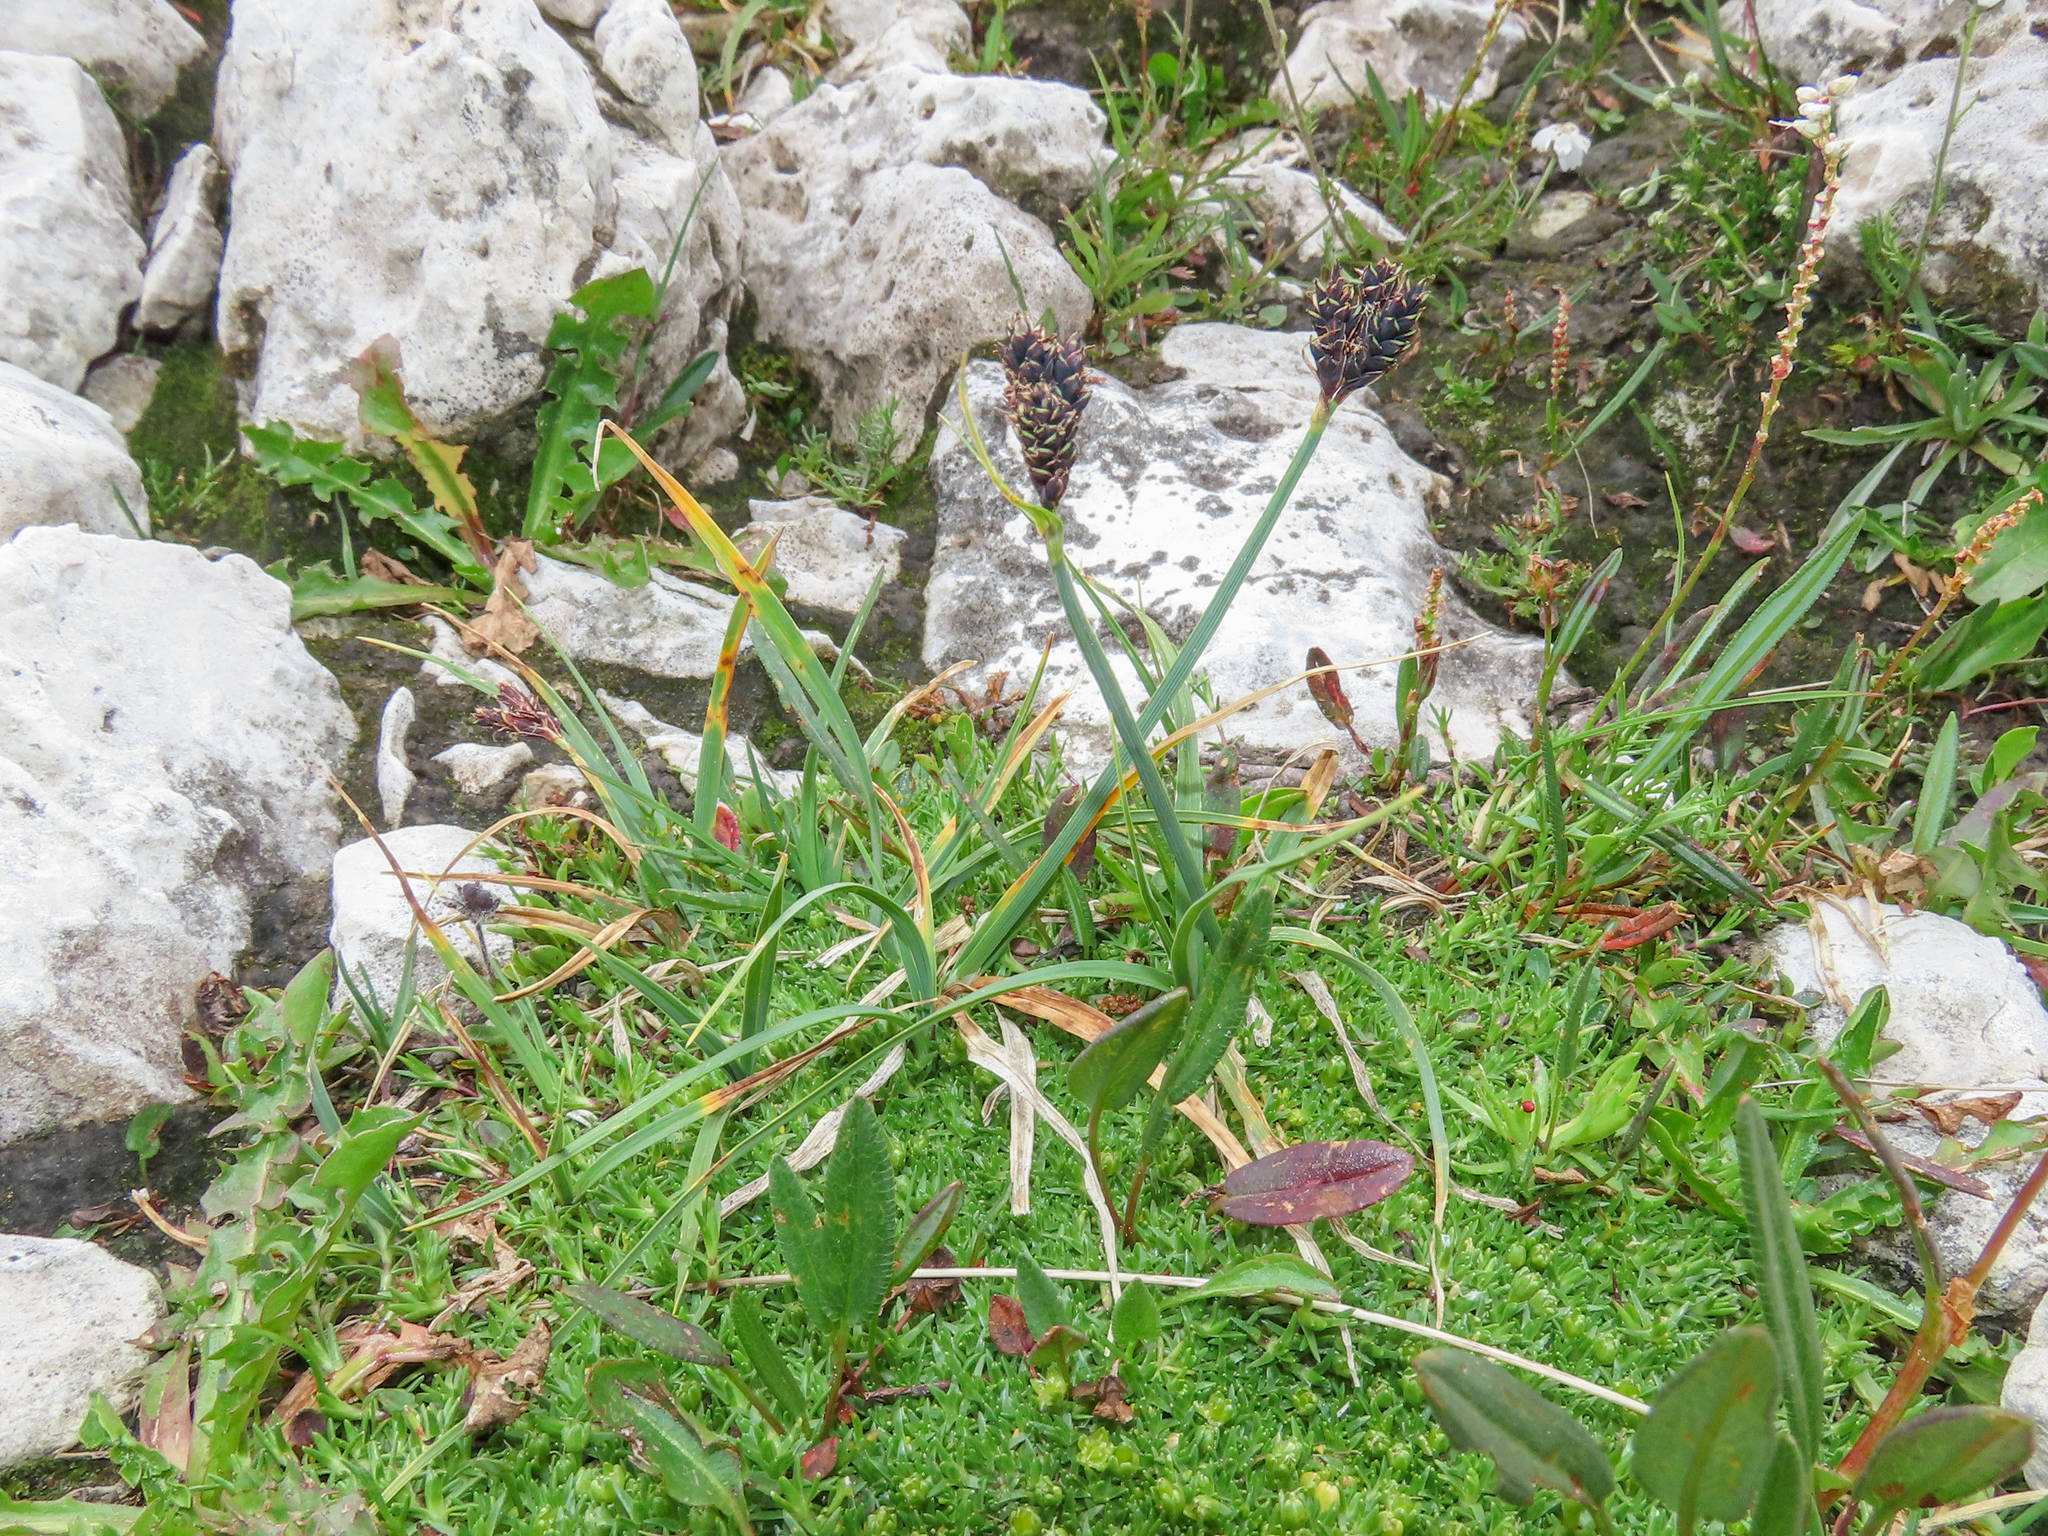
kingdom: Plantae
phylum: Tracheophyta
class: Liliopsida
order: Poales
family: Cyperaceae
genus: Carex
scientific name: Carex parviflora
